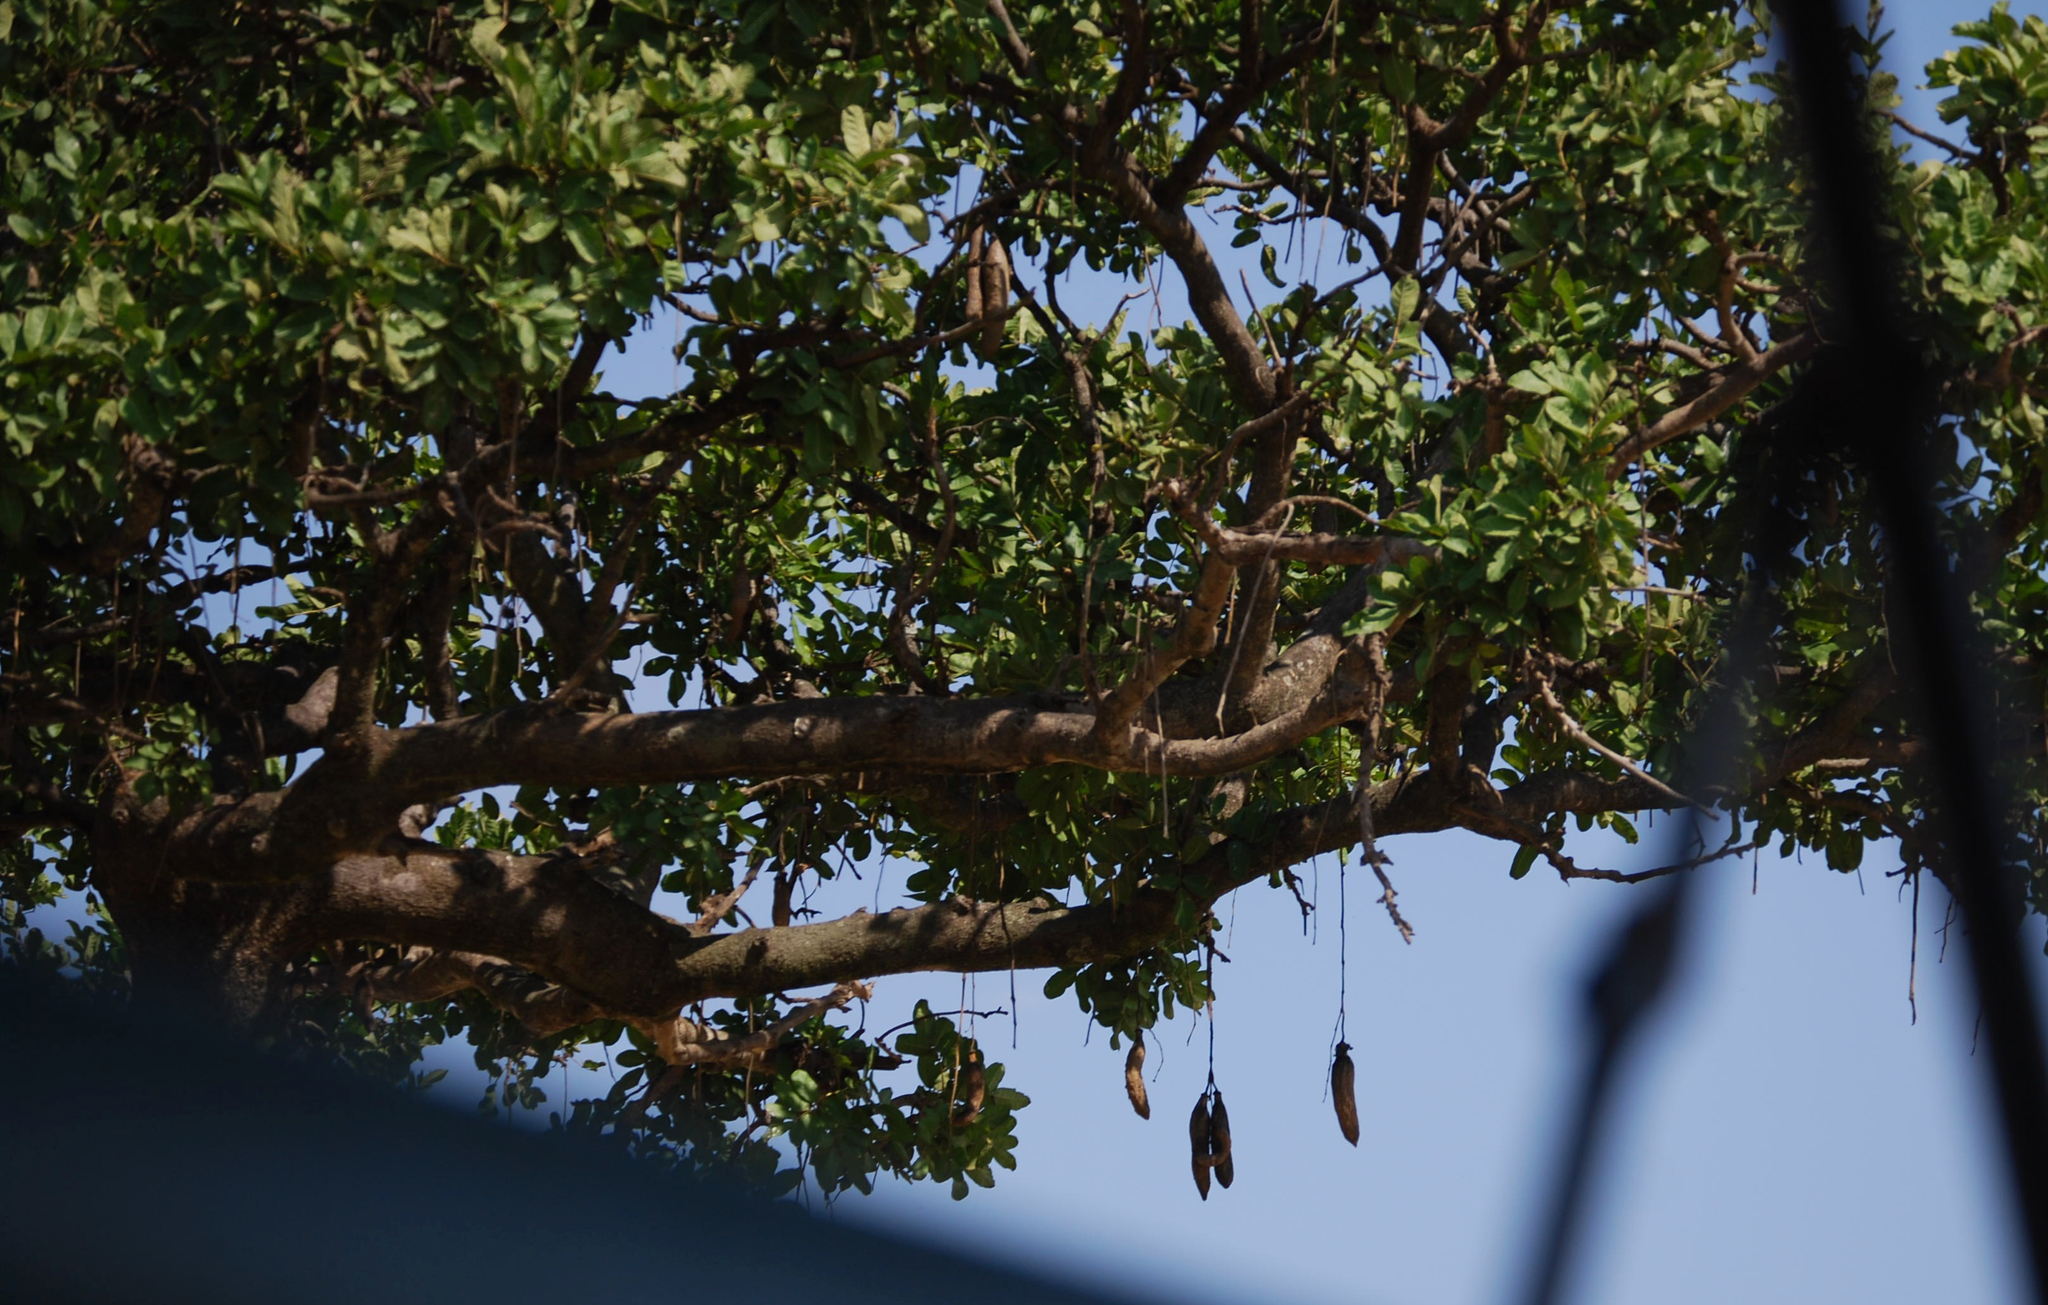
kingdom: Plantae
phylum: Tracheophyta
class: Magnoliopsida
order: Lamiales
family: Bignoniaceae
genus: Kigelia
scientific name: Kigelia africana
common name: Sausage tree
